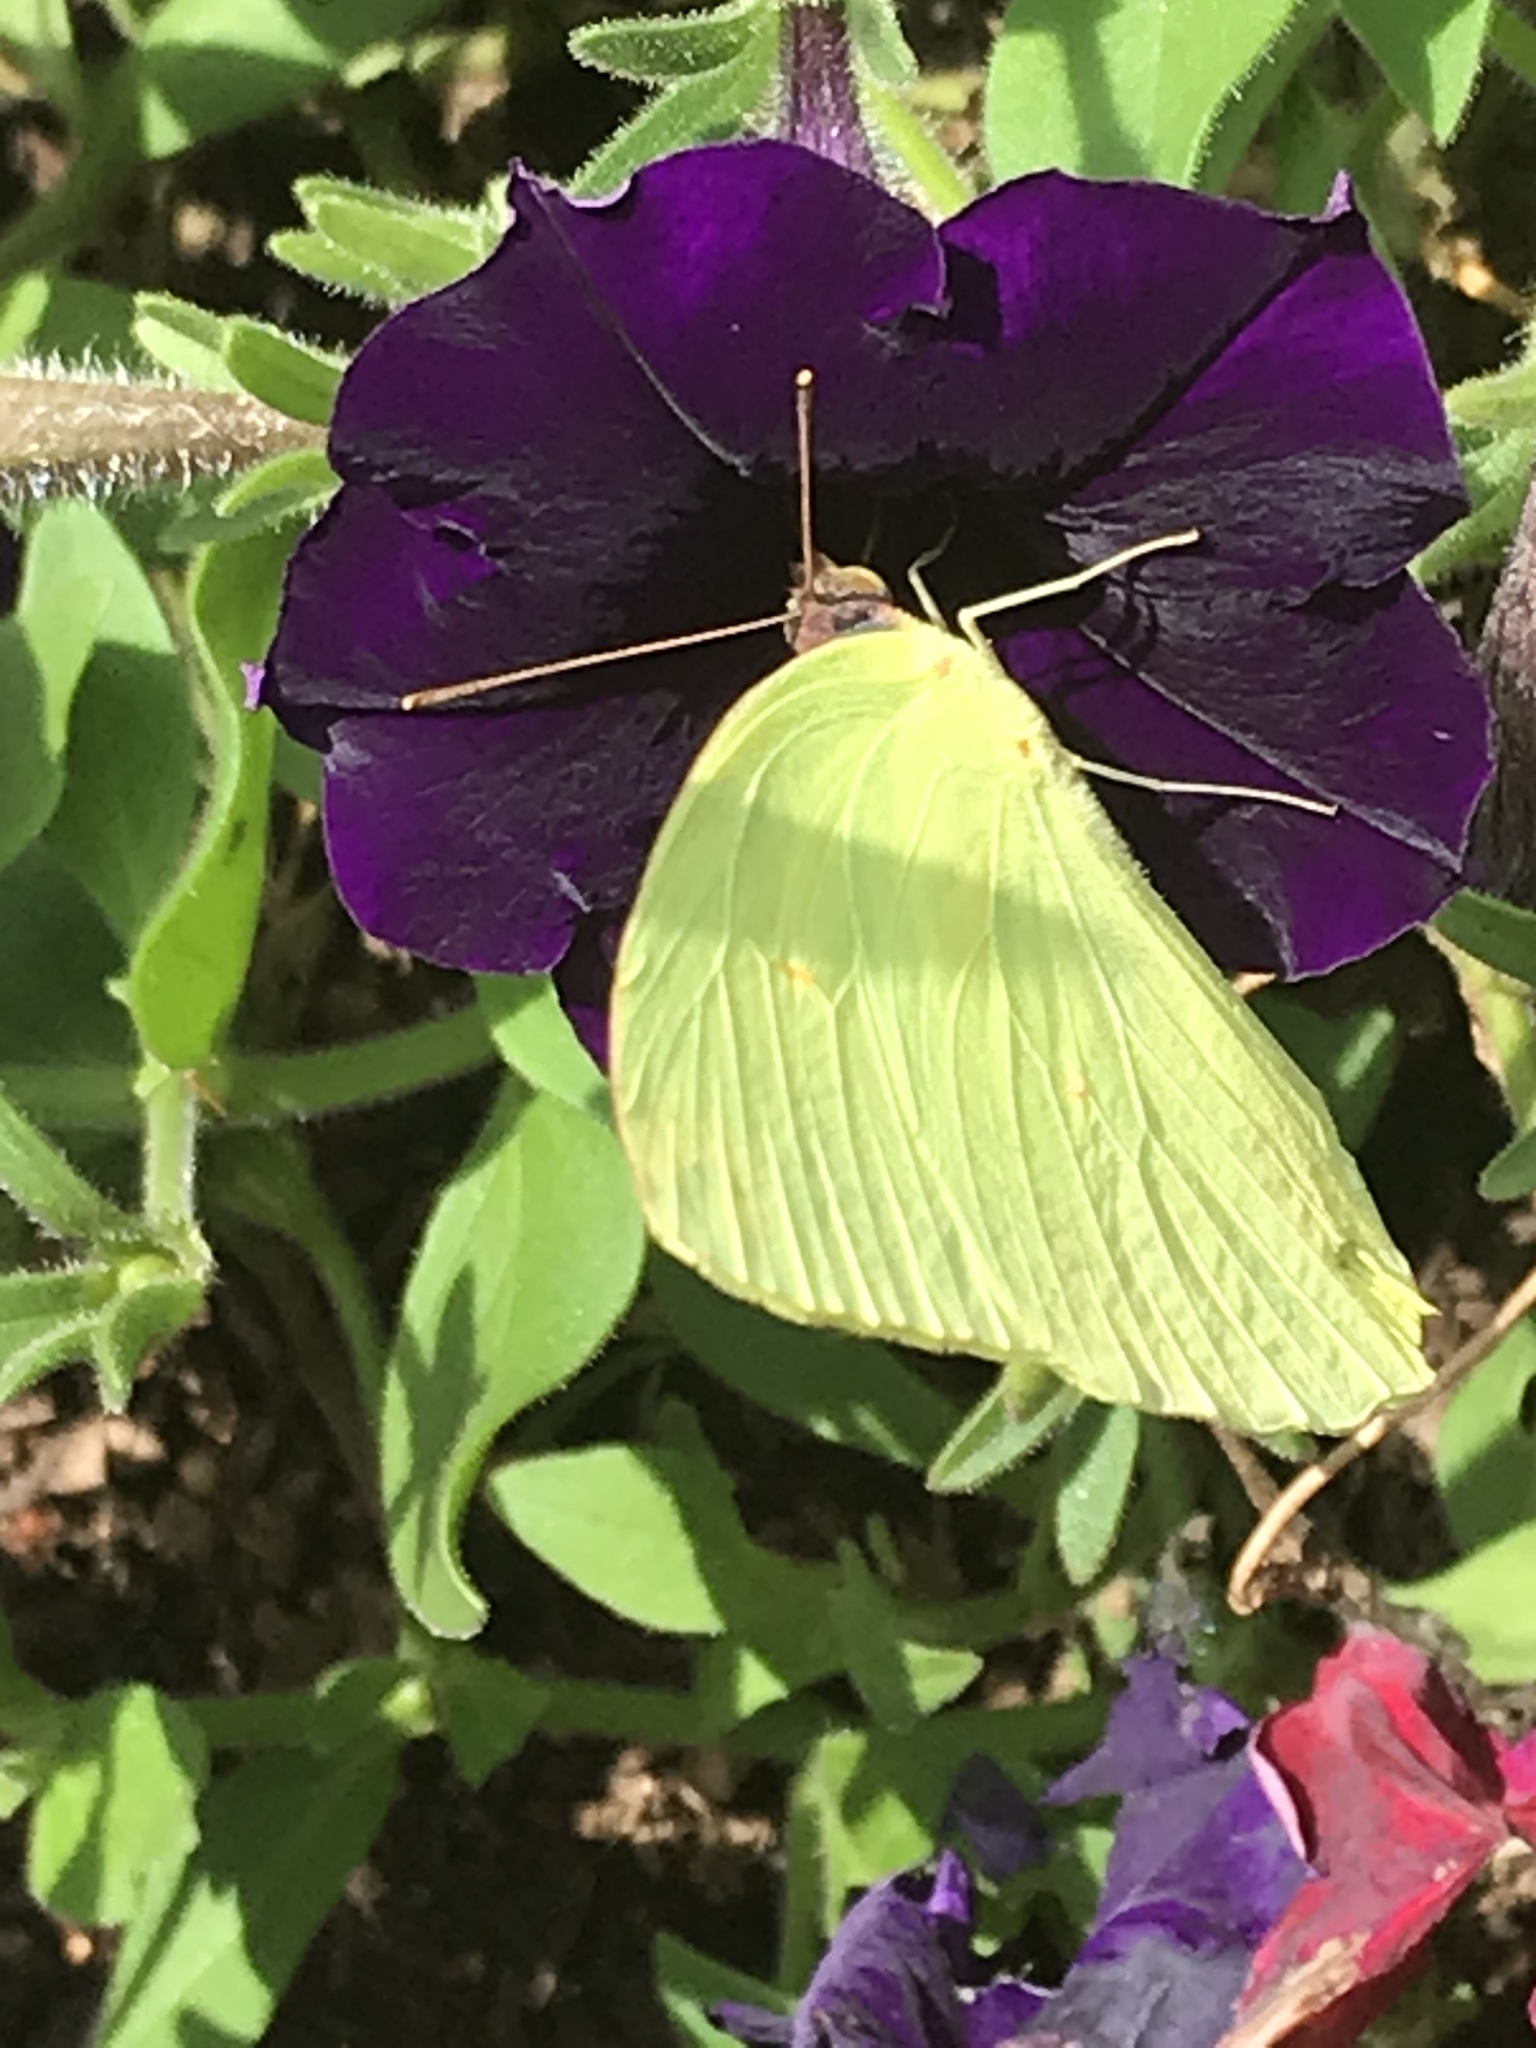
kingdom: Animalia
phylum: Arthropoda
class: Insecta
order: Lepidoptera
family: Pieridae
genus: Phoebis
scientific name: Phoebis sennae
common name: Cloudless sulphur
